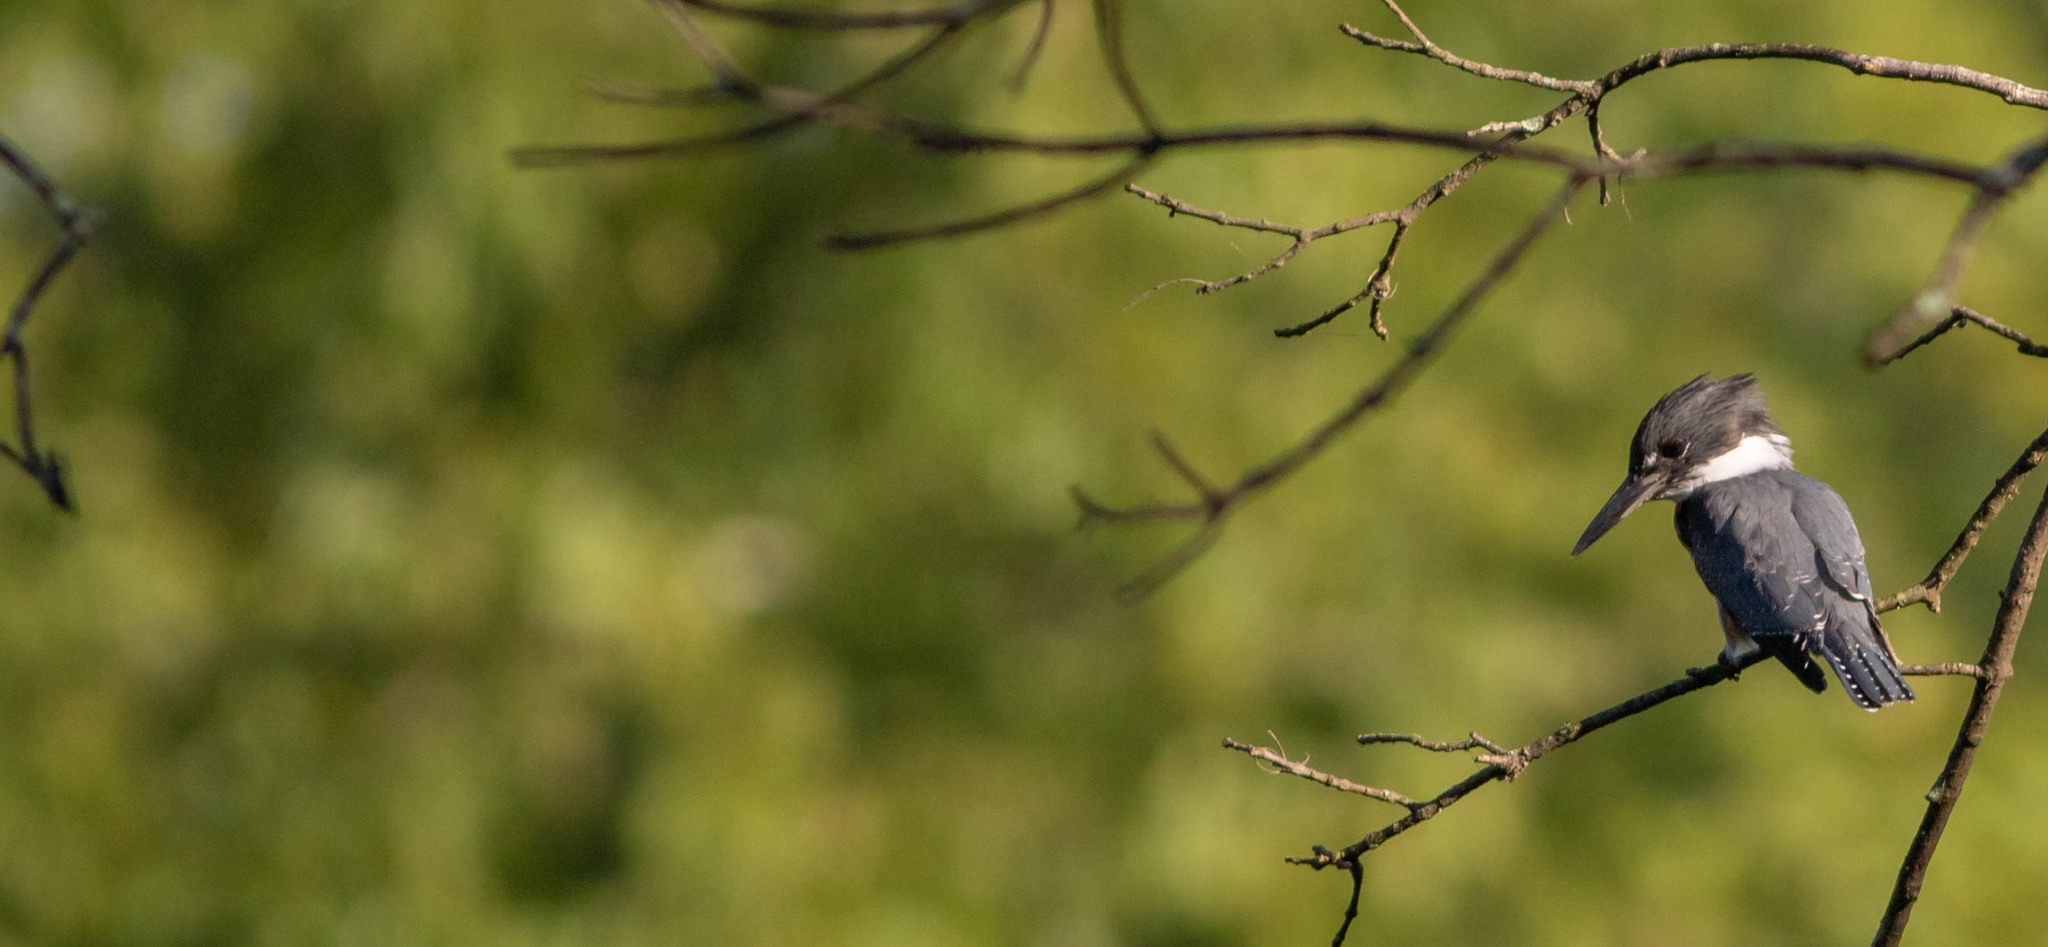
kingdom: Animalia
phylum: Chordata
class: Aves
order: Coraciiformes
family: Alcedinidae
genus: Megaceryle
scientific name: Megaceryle alcyon
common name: Belted kingfisher
